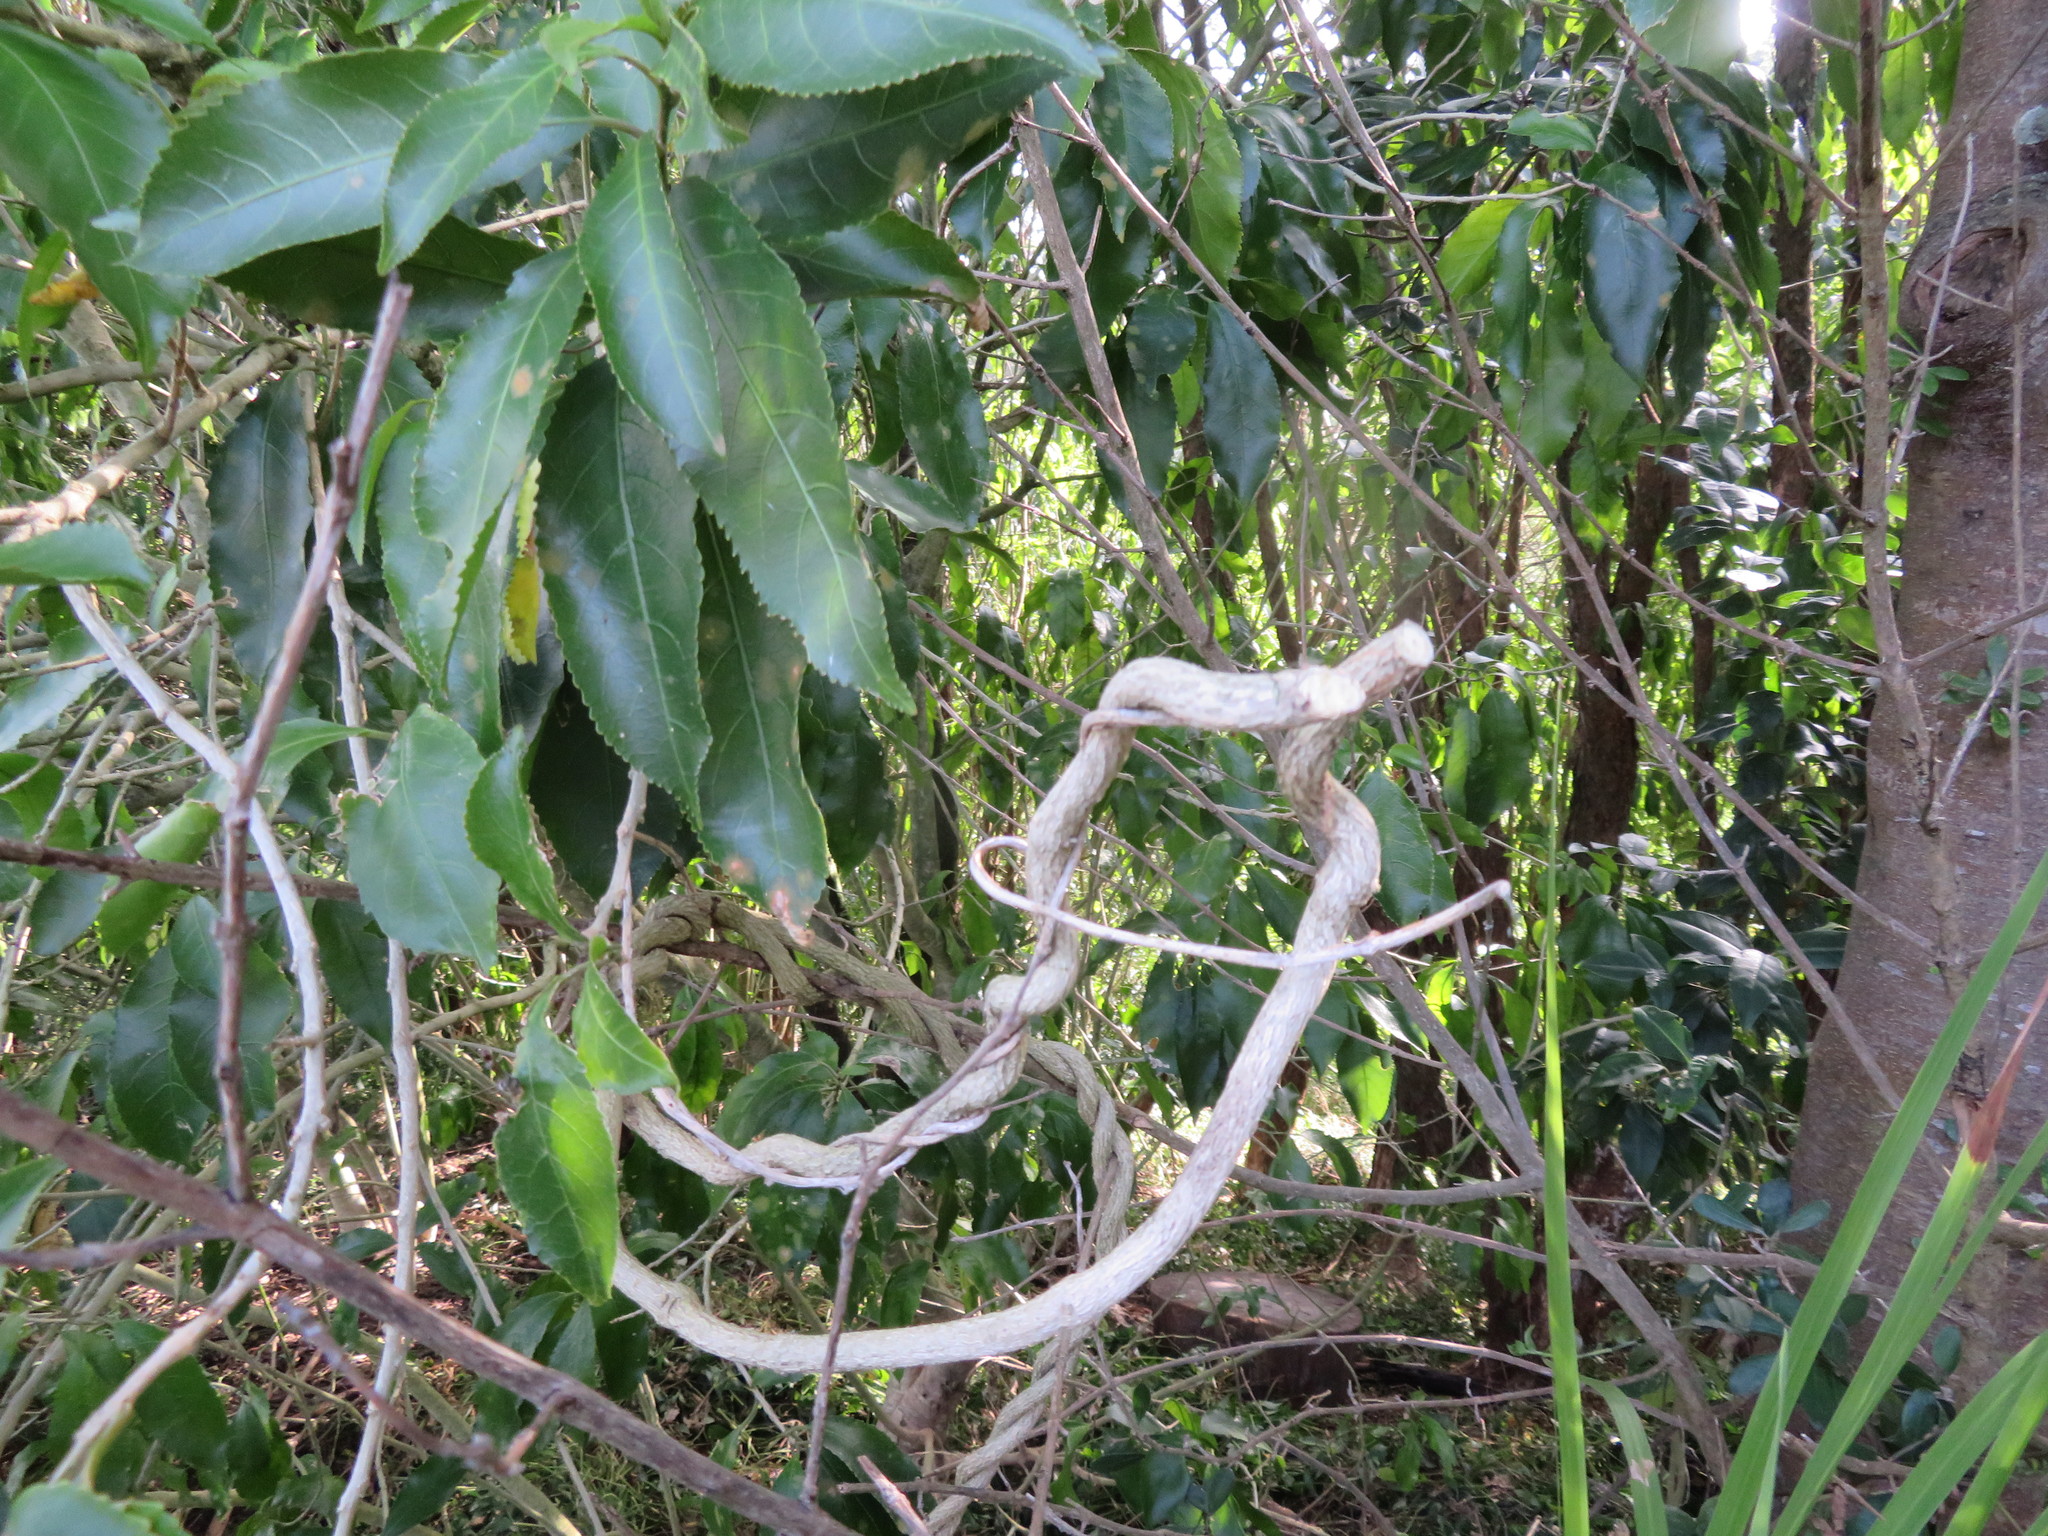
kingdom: Plantae
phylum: Tracheophyta
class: Magnoliopsida
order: Gentianales
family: Apocynaceae
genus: Araujia
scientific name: Araujia sericifera
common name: White bladderflower
